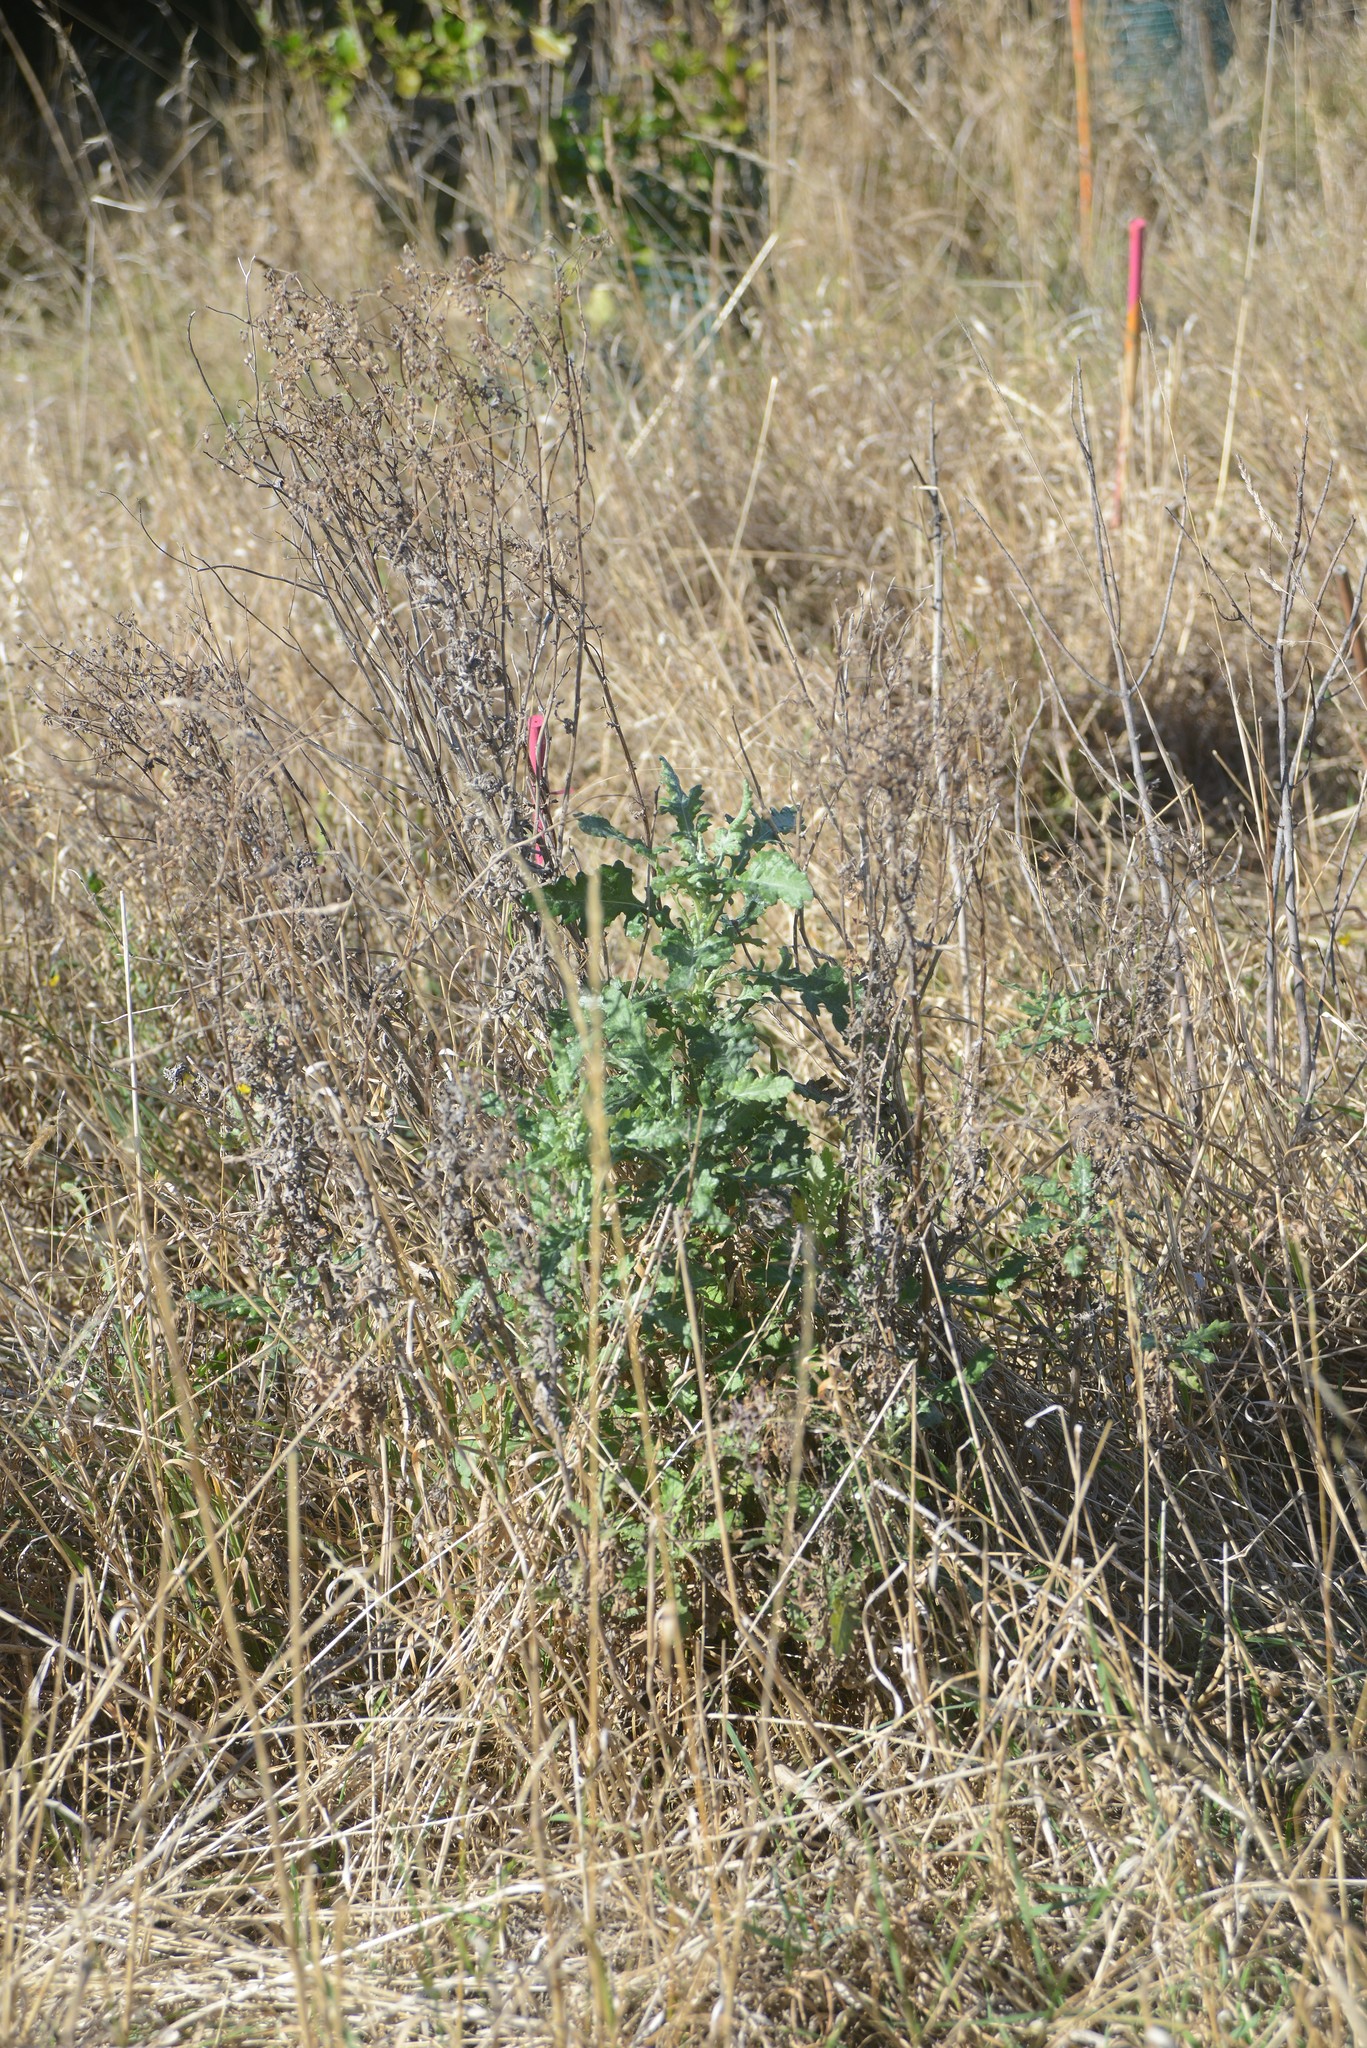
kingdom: Plantae
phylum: Tracheophyta
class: Magnoliopsida
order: Asterales
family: Asteraceae
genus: Senecio
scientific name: Senecio glomeratus
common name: Cutleaf burnweed
